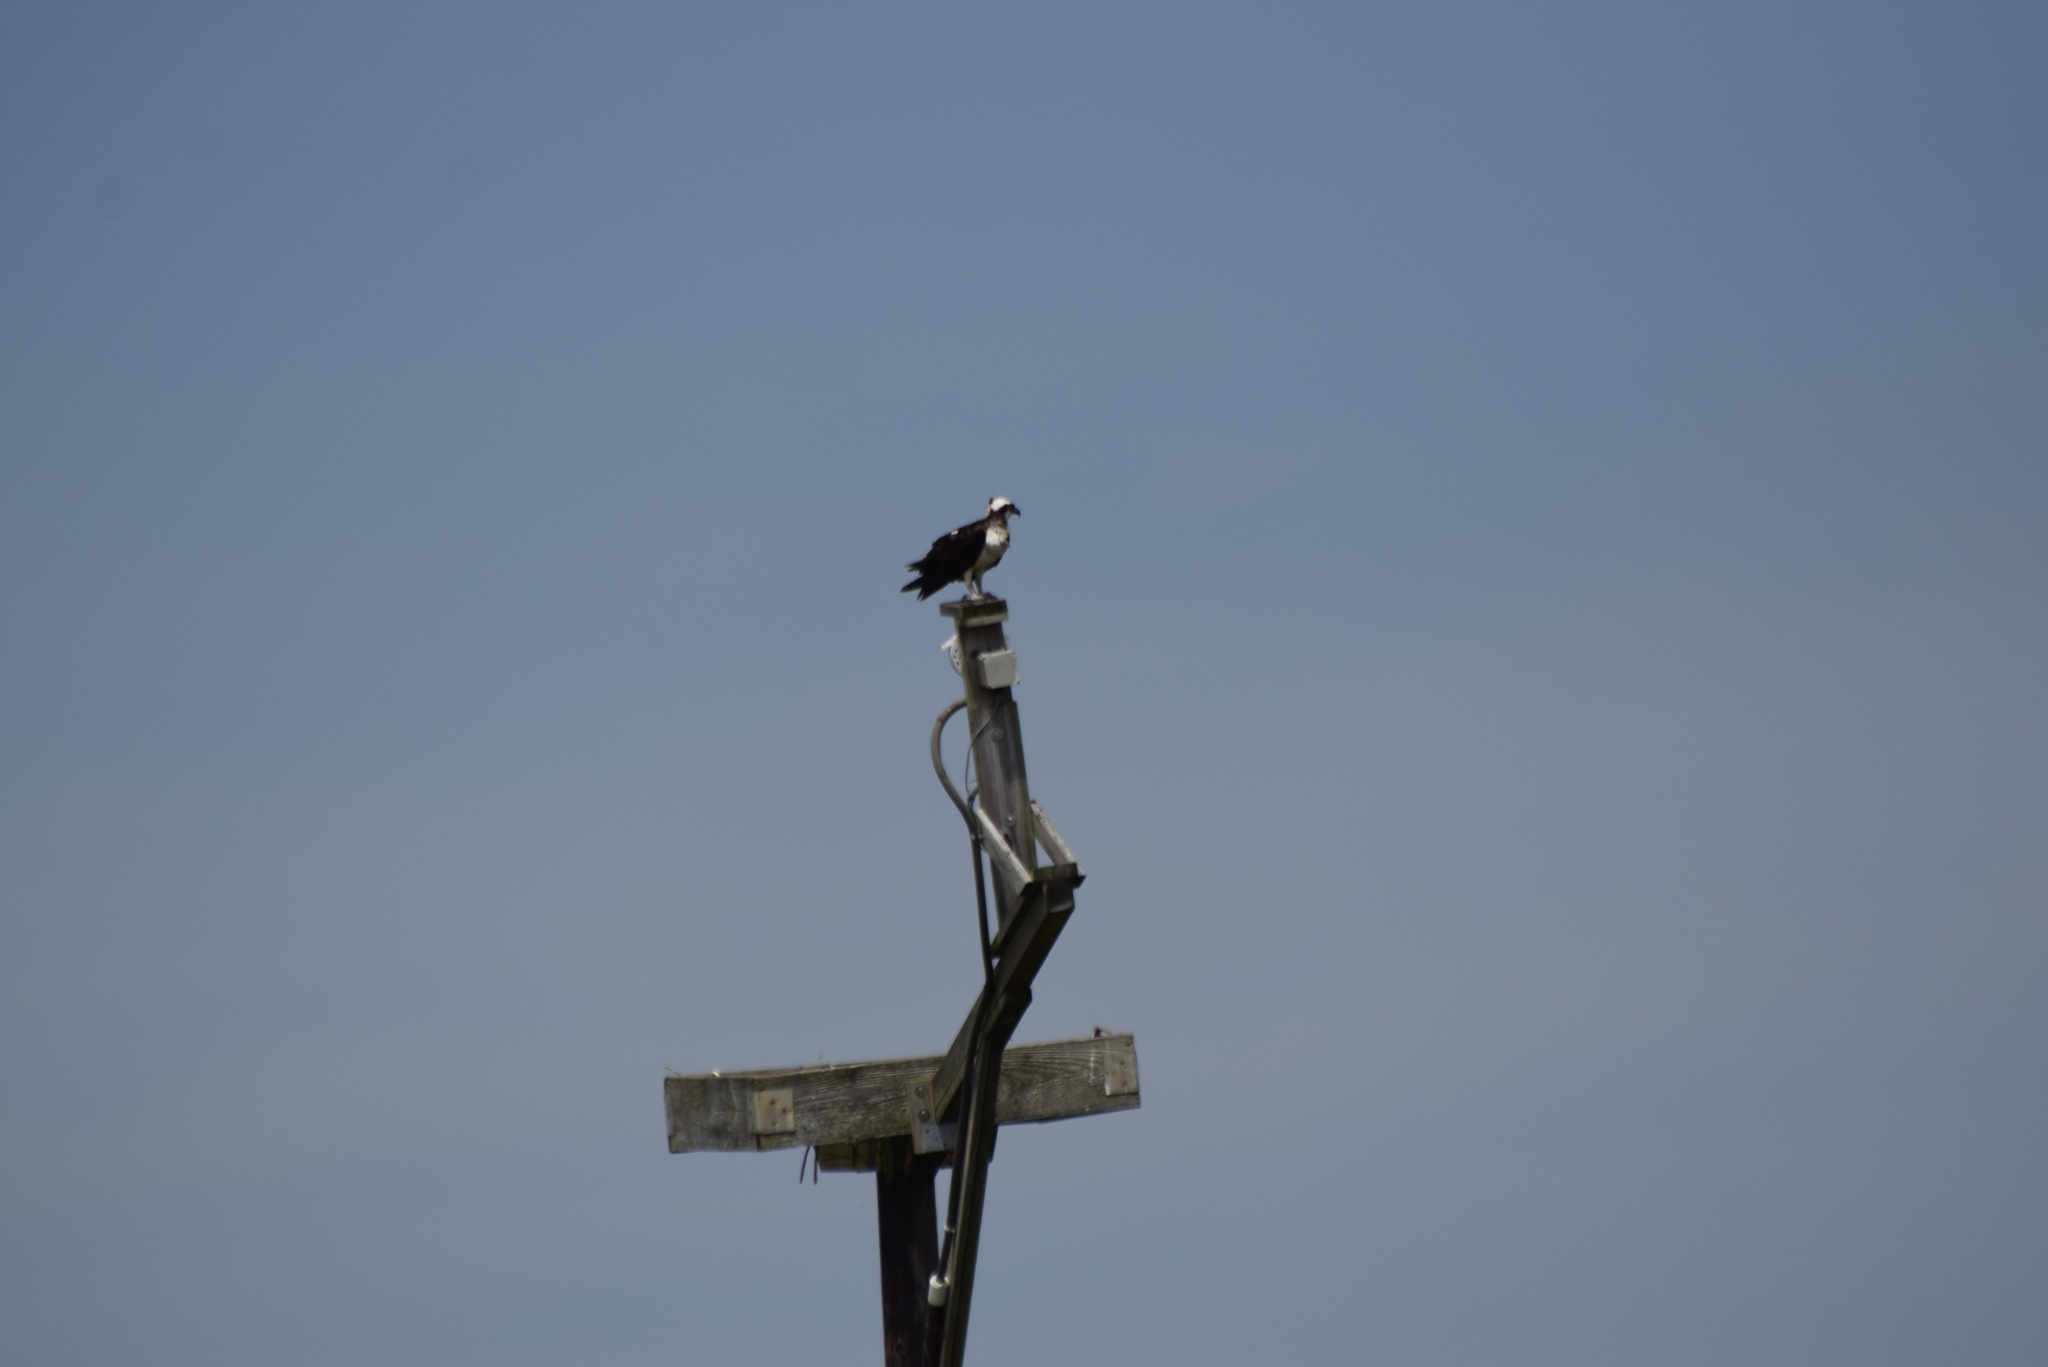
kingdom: Animalia
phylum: Chordata
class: Aves
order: Accipitriformes
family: Pandionidae
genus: Pandion
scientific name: Pandion haliaetus
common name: Osprey
